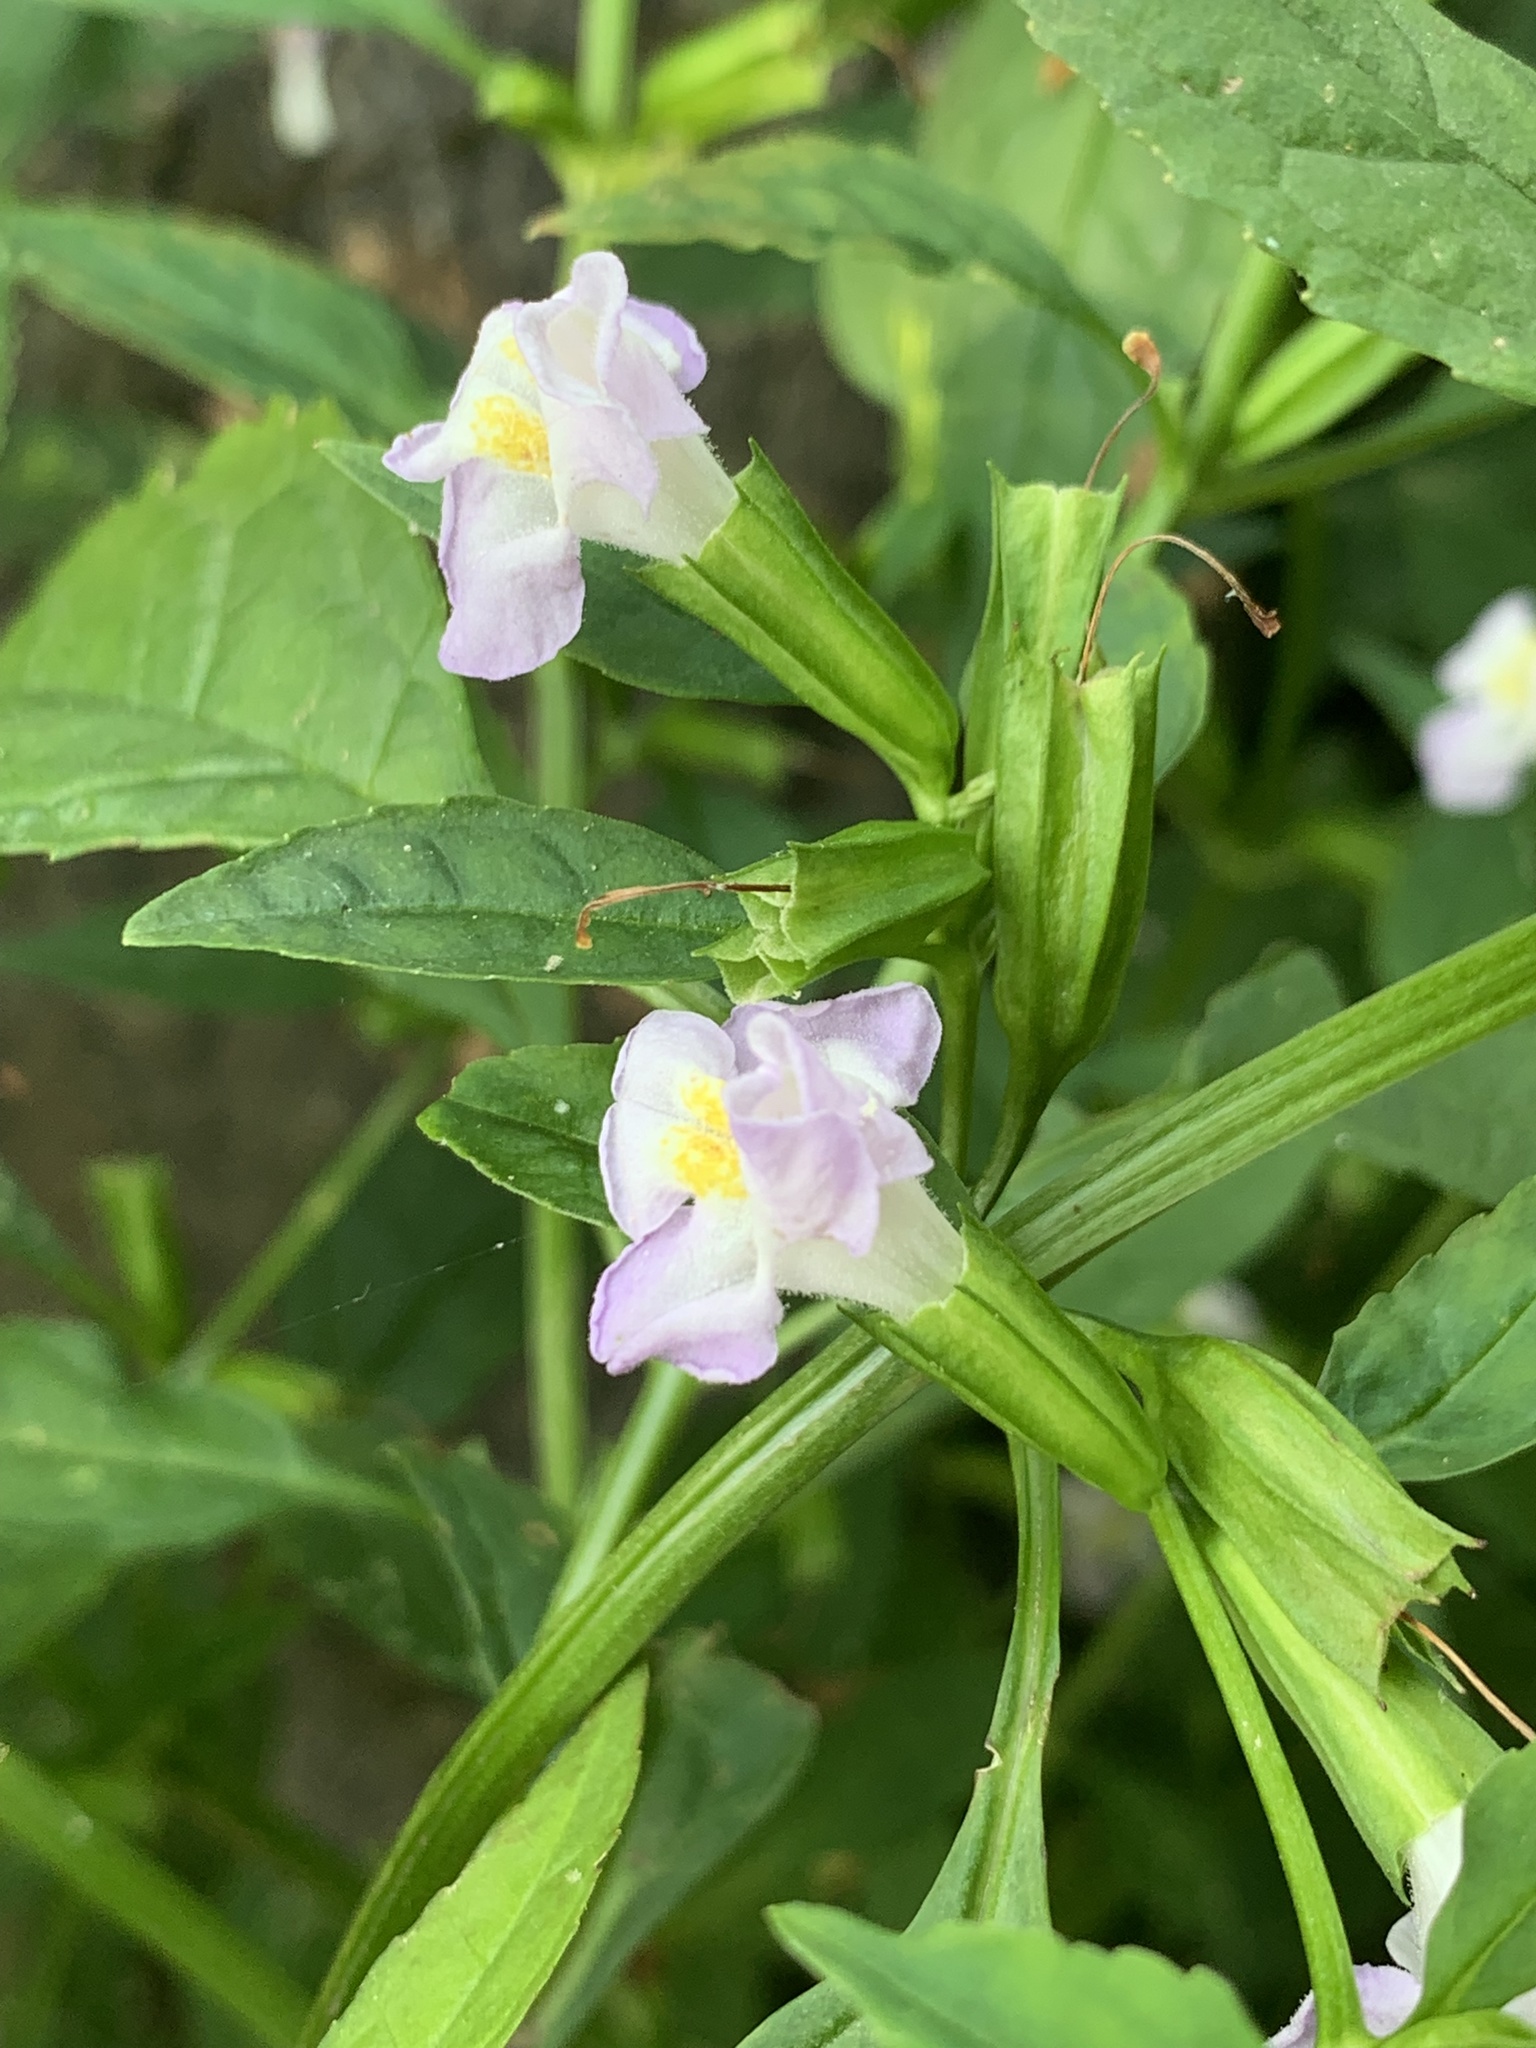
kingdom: Plantae
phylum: Tracheophyta
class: Magnoliopsida
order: Lamiales
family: Phrymaceae
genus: Mimulus
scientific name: Mimulus alatus
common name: Sharp-wing monkey-flower
